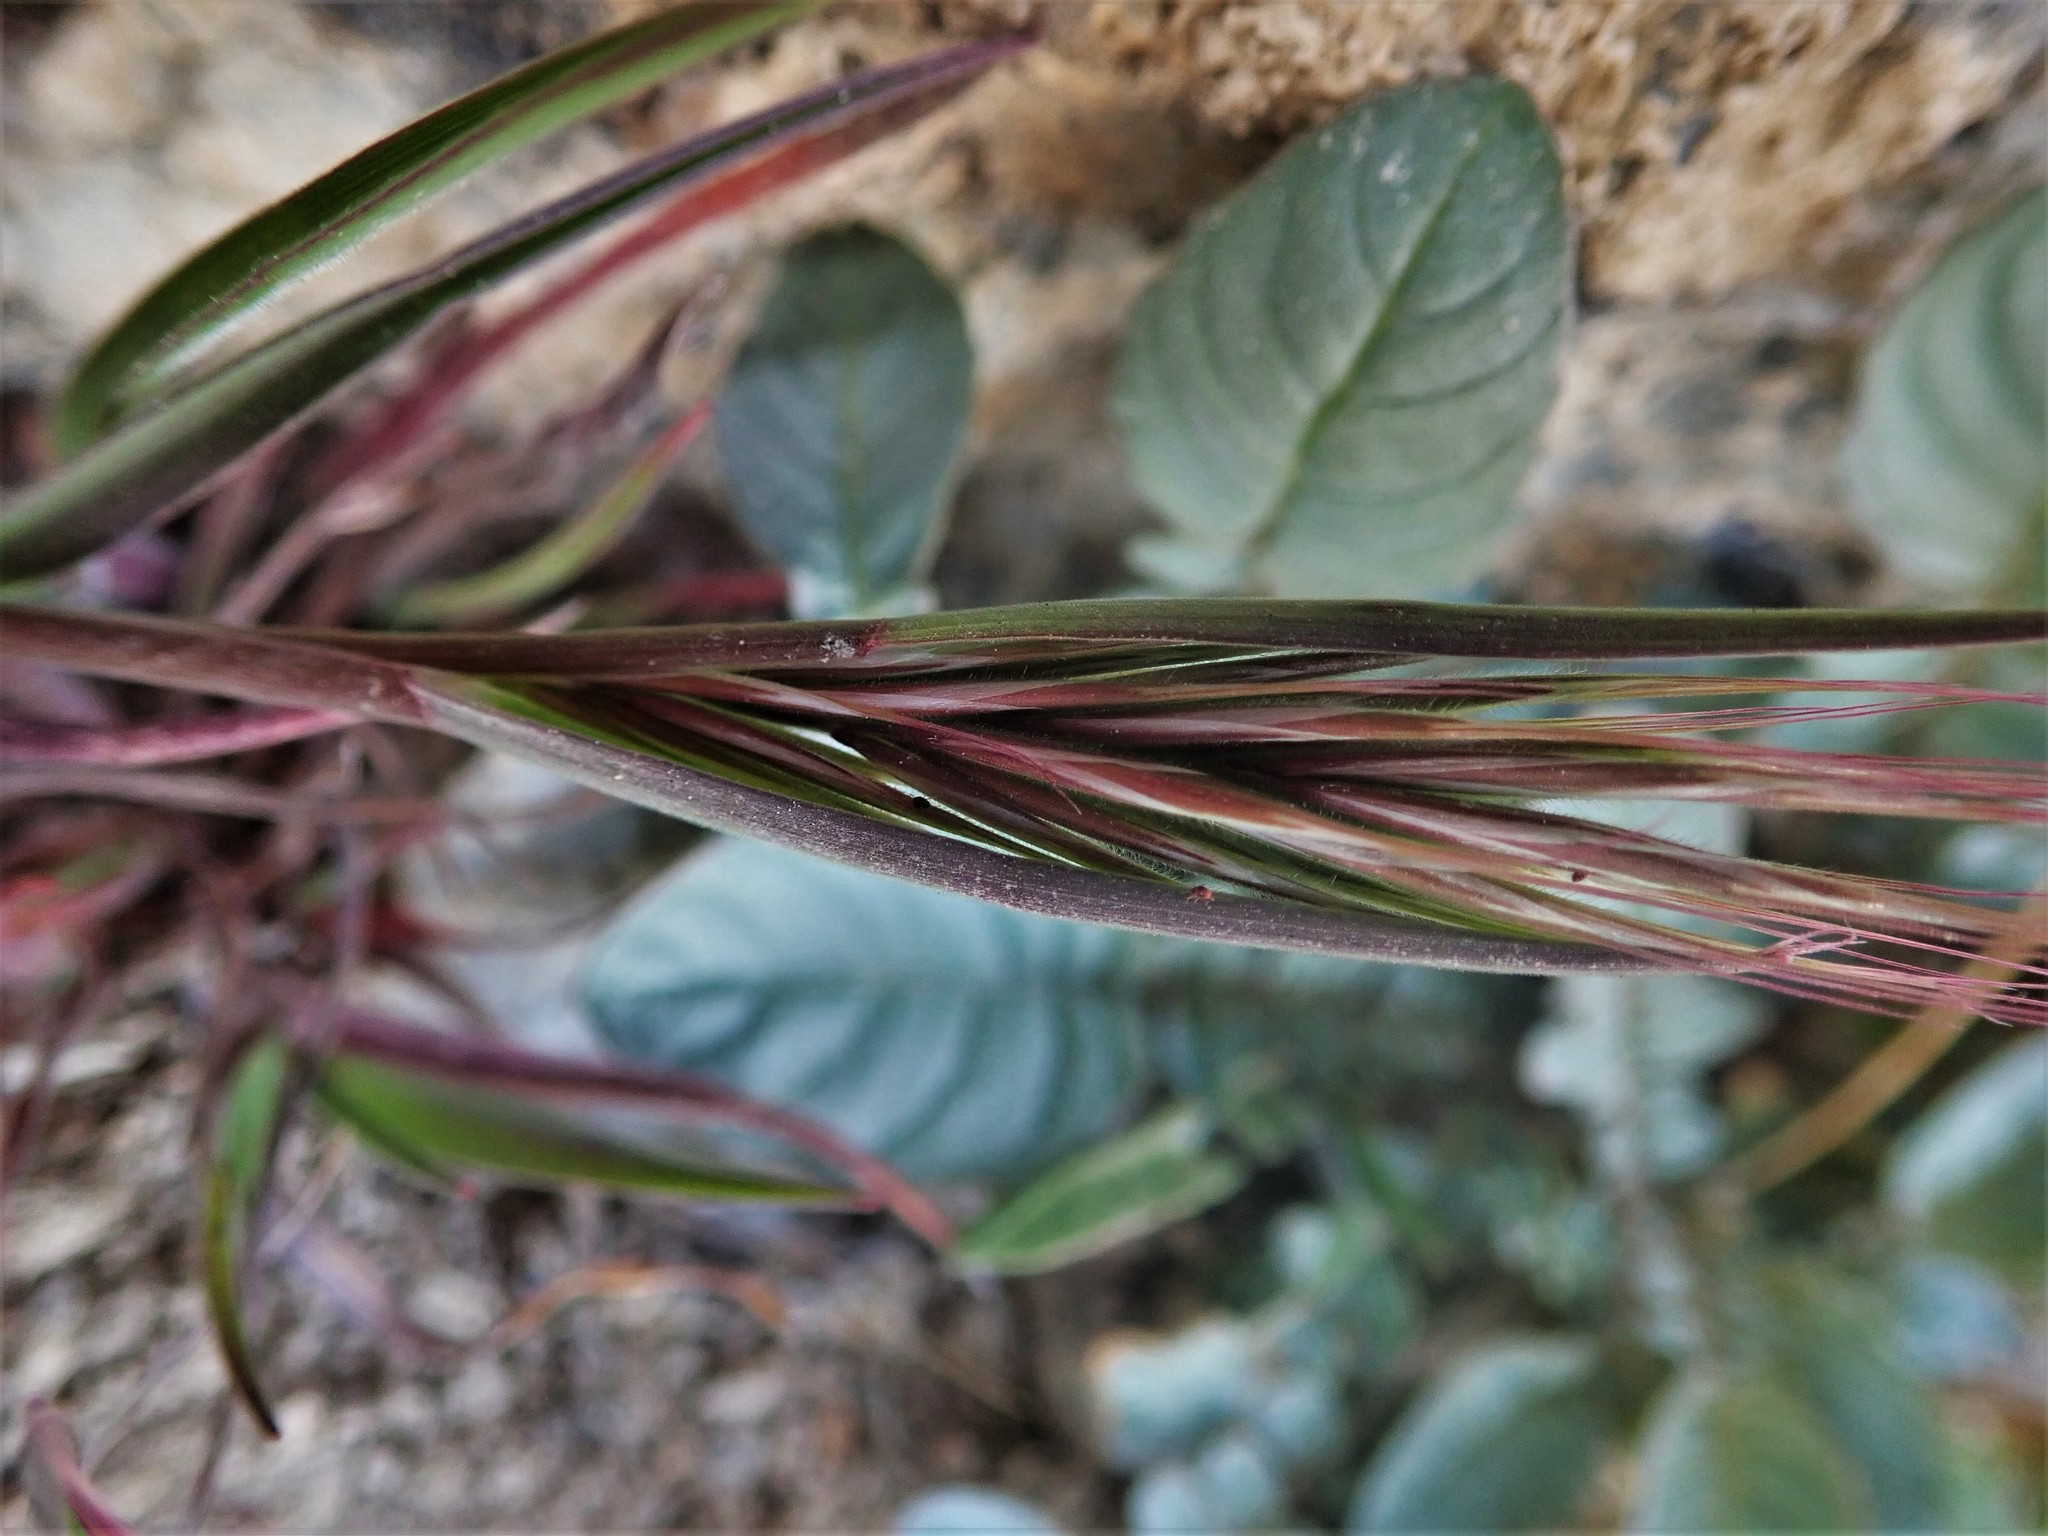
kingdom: Plantae
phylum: Tracheophyta
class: Liliopsida
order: Poales
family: Poaceae
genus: Bromus
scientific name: Bromus tectorum
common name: Cheatgrass
